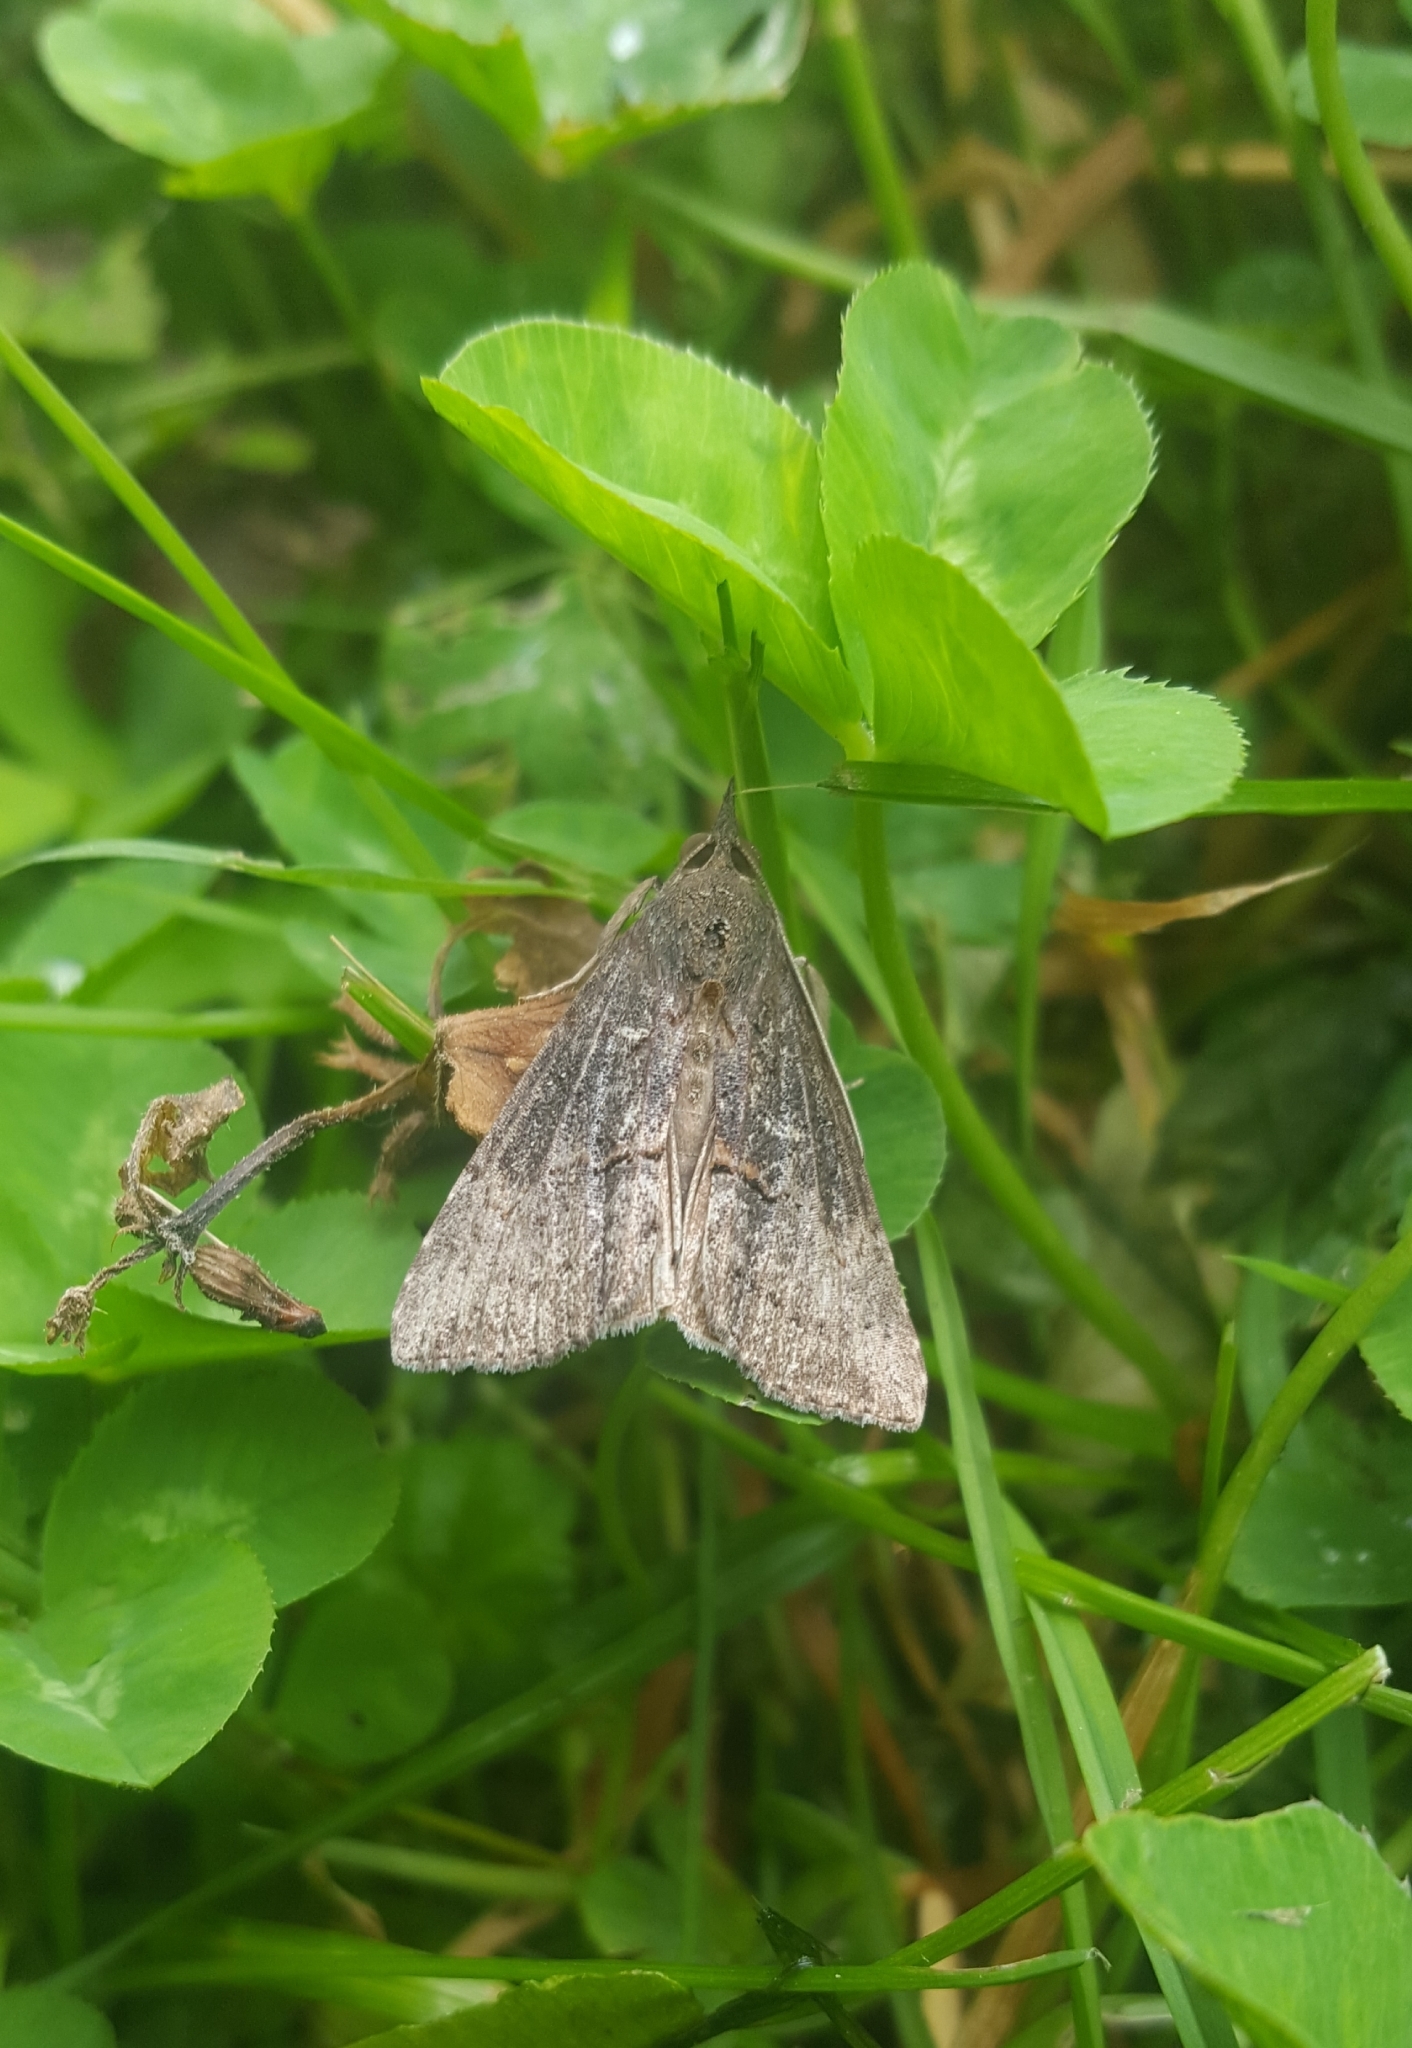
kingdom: Animalia
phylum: Arthropoda
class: Insecta
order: Lepidoptera
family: Erebidae
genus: Hypena
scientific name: Hypena scabra
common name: Green cloverworm
